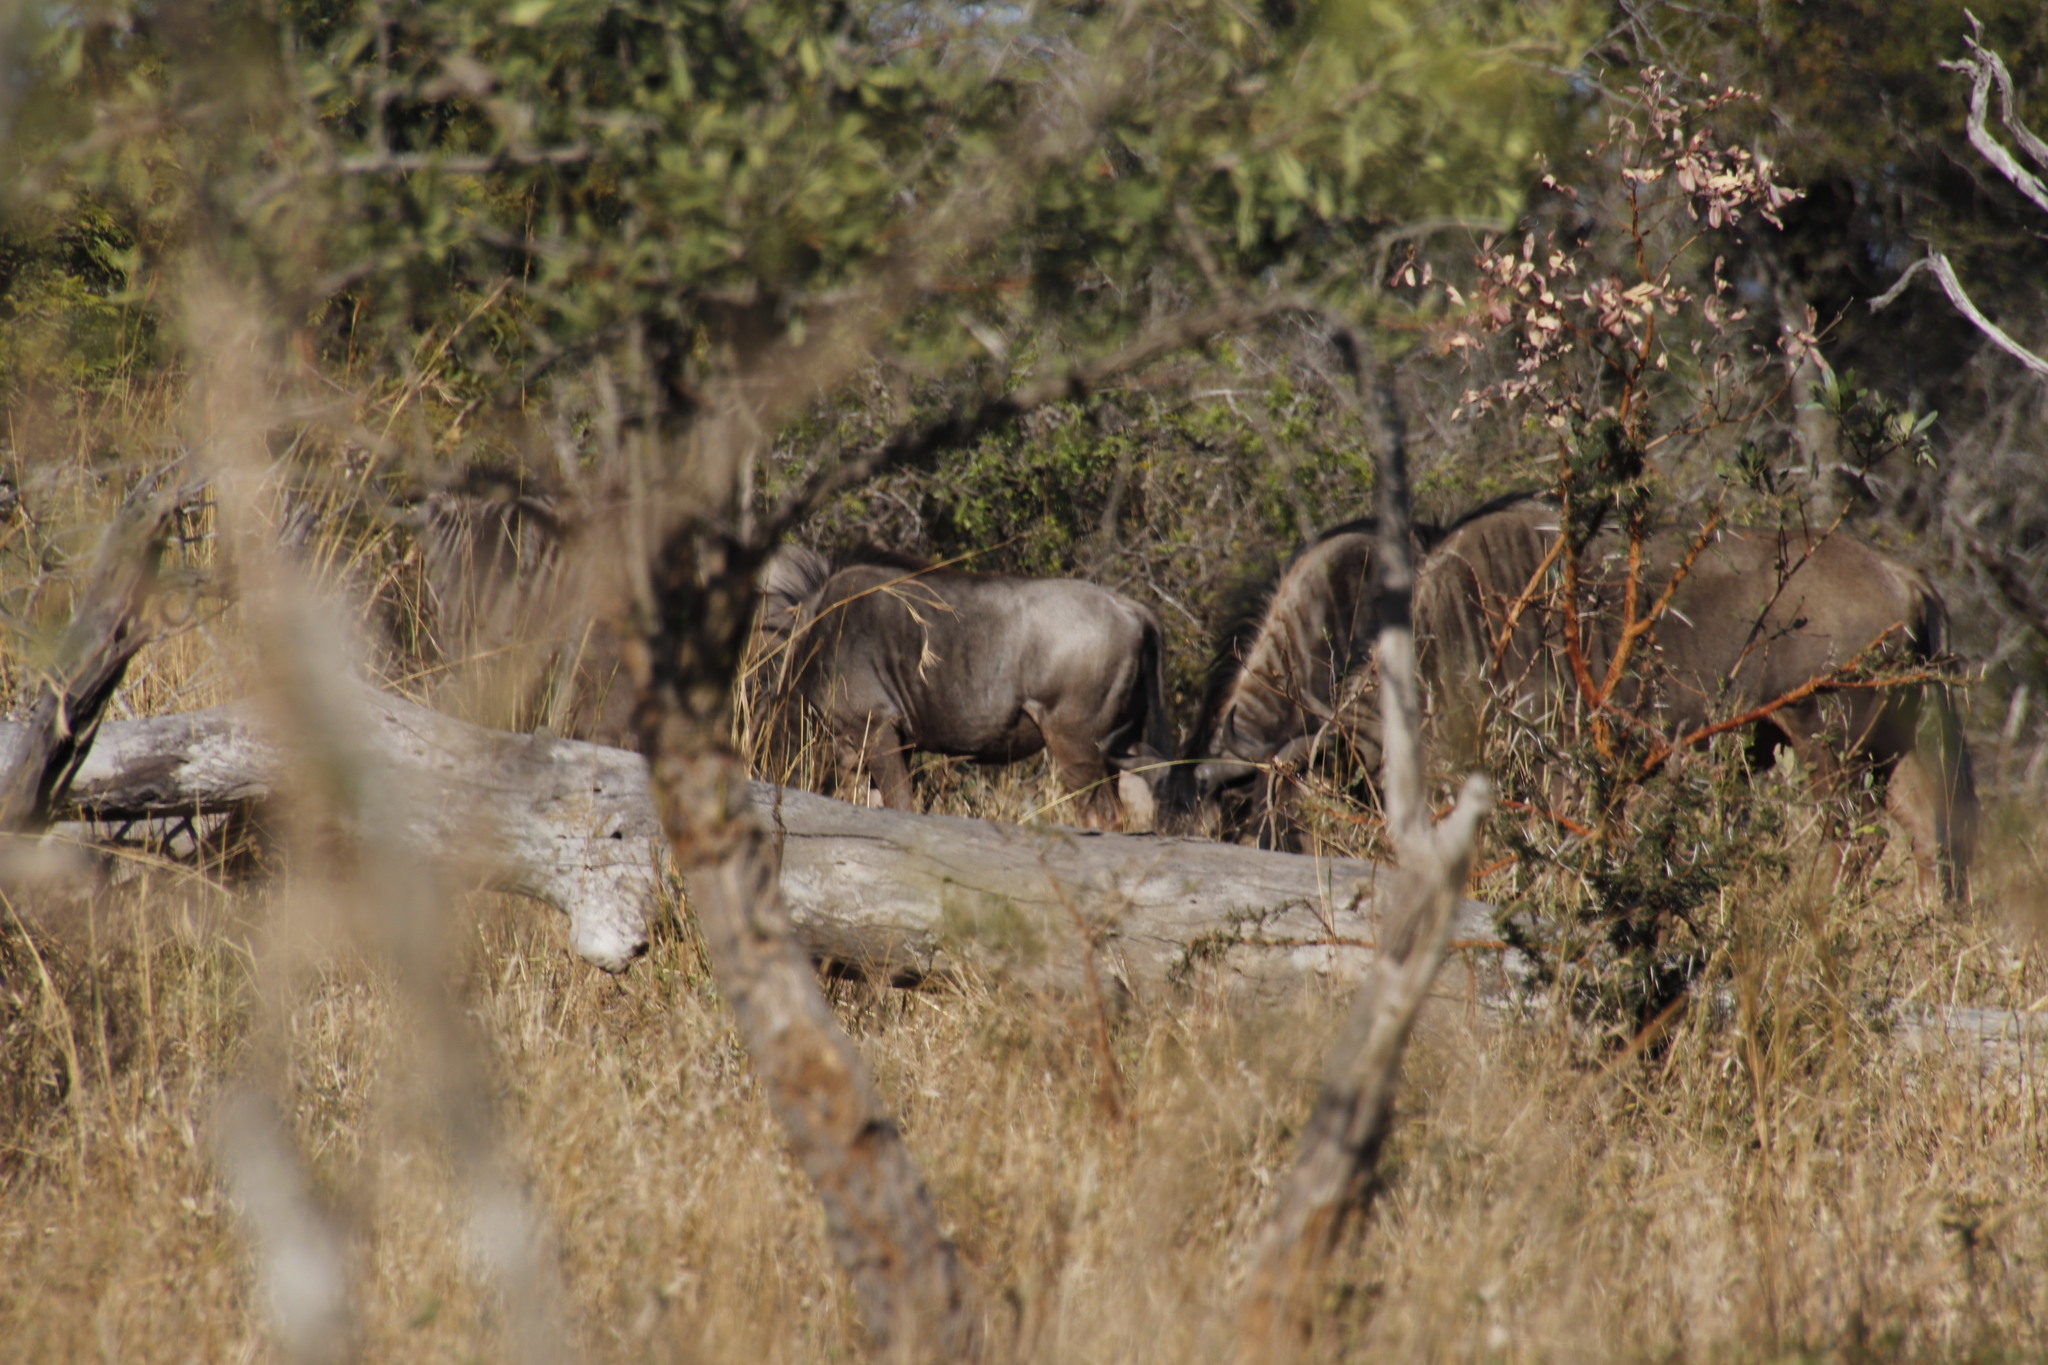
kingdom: Animalia
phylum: Chordata
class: Mammalia
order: Artiodactyla
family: Bovidae
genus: Connochaetes
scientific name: Connochaetes taurinus
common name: Blue wildebeest
